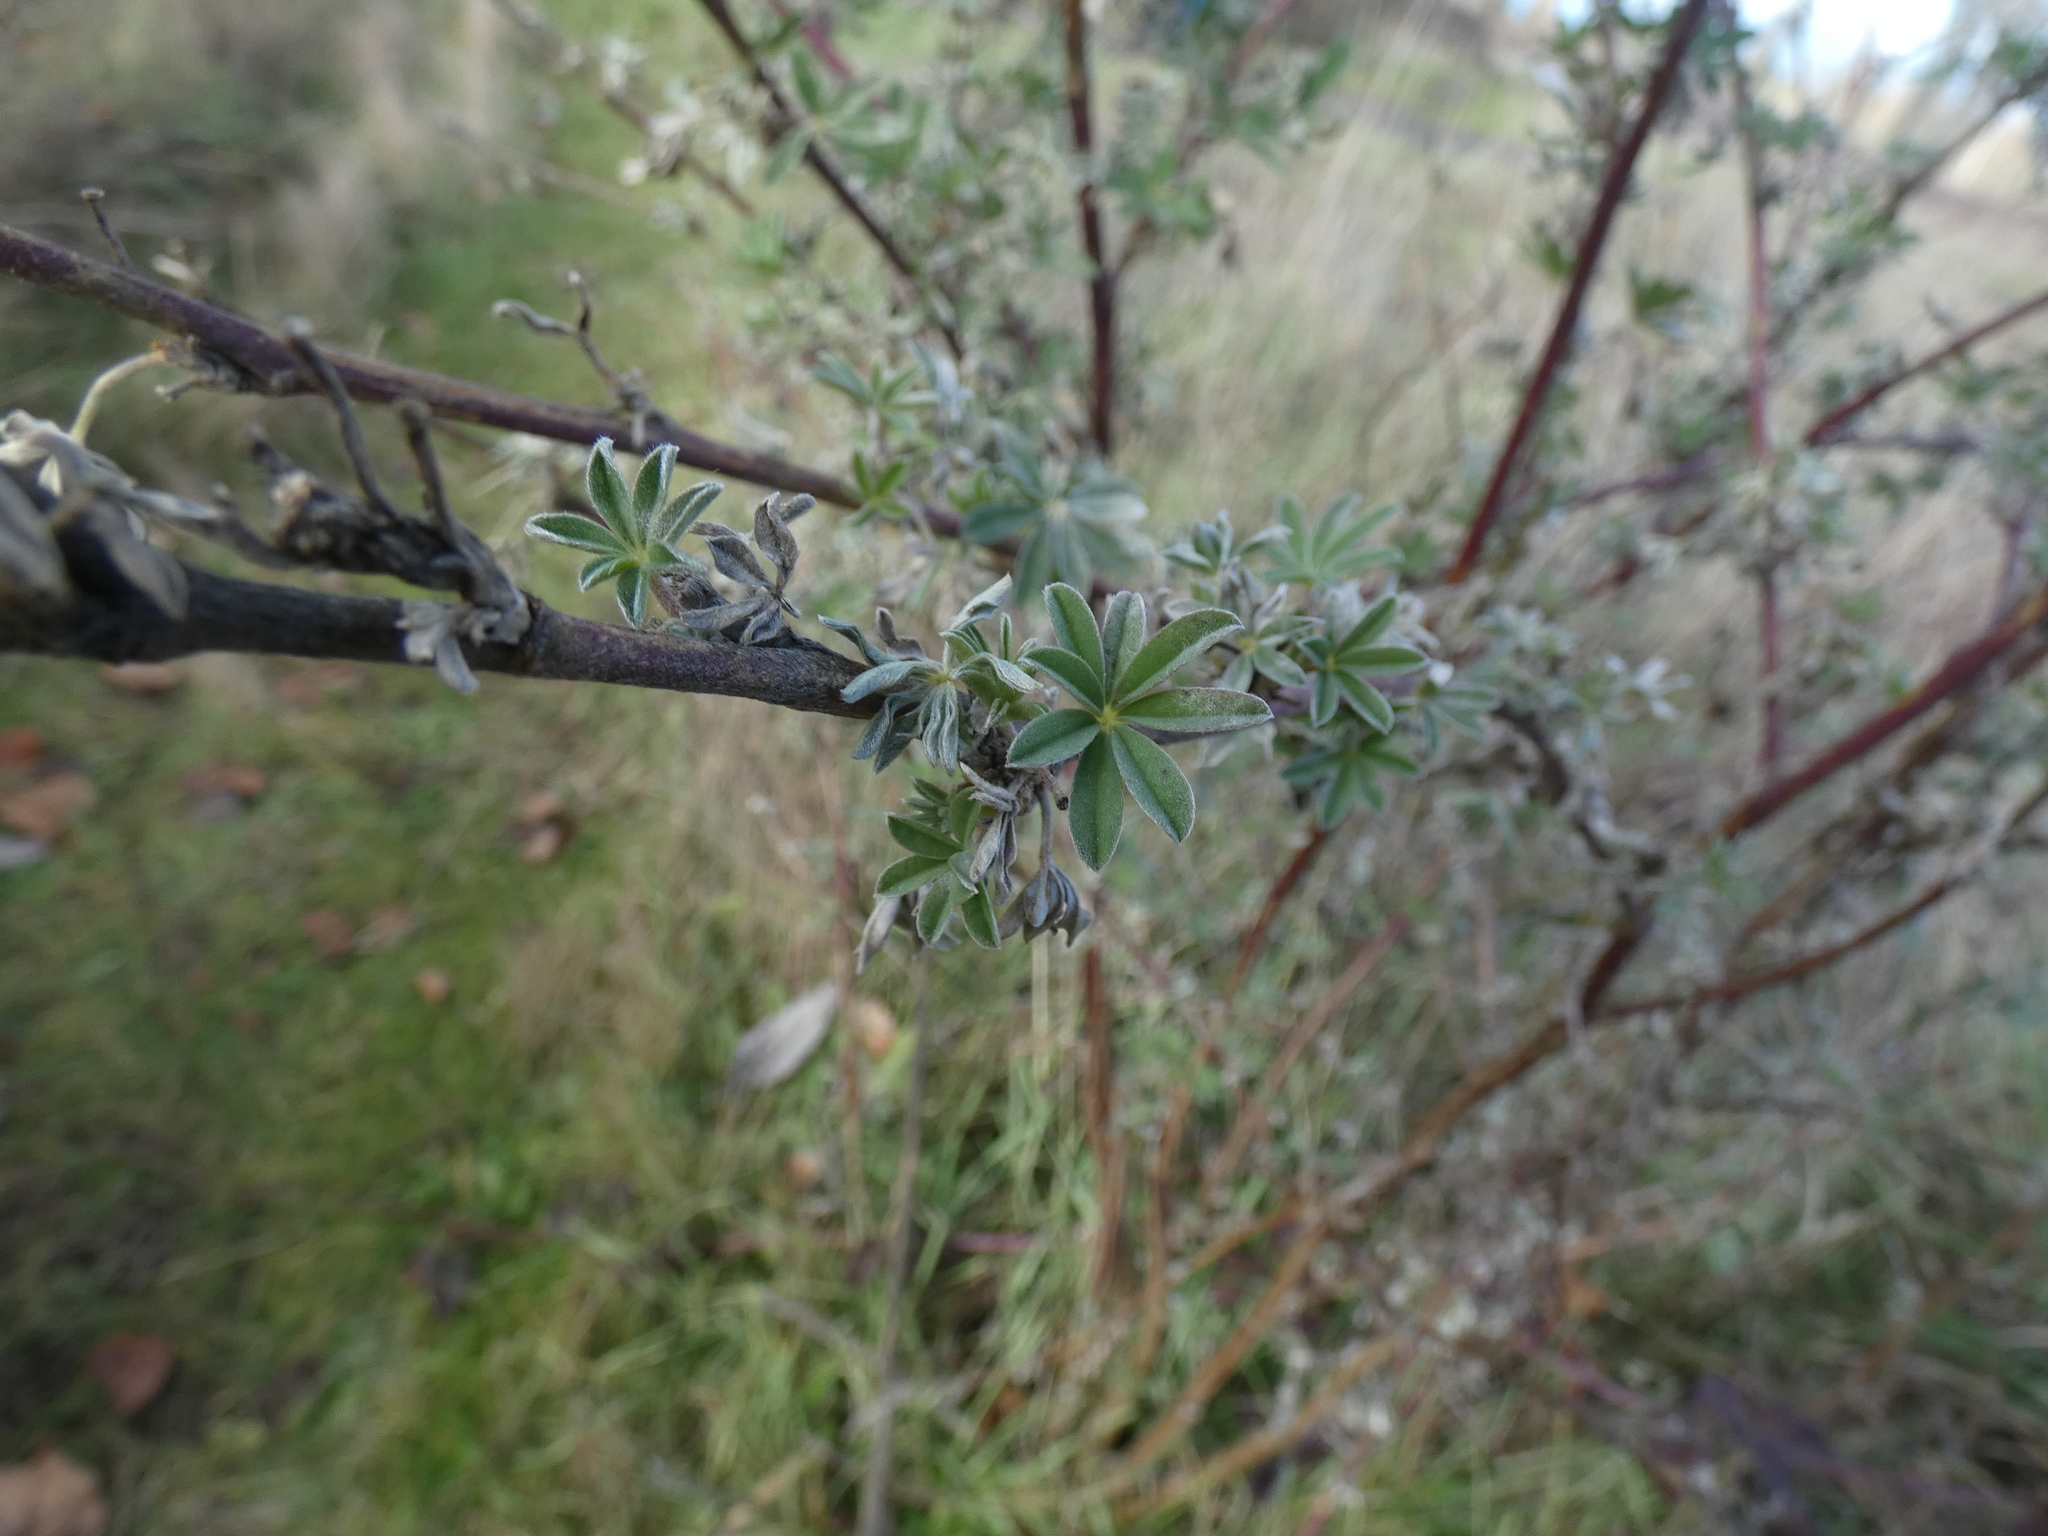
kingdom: Plantae
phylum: Tracheophyta
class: Magnoliopsida
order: Fabales
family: Fabaceae
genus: Lupinus
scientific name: Lupinus arboreus
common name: Yellow bush lupine
